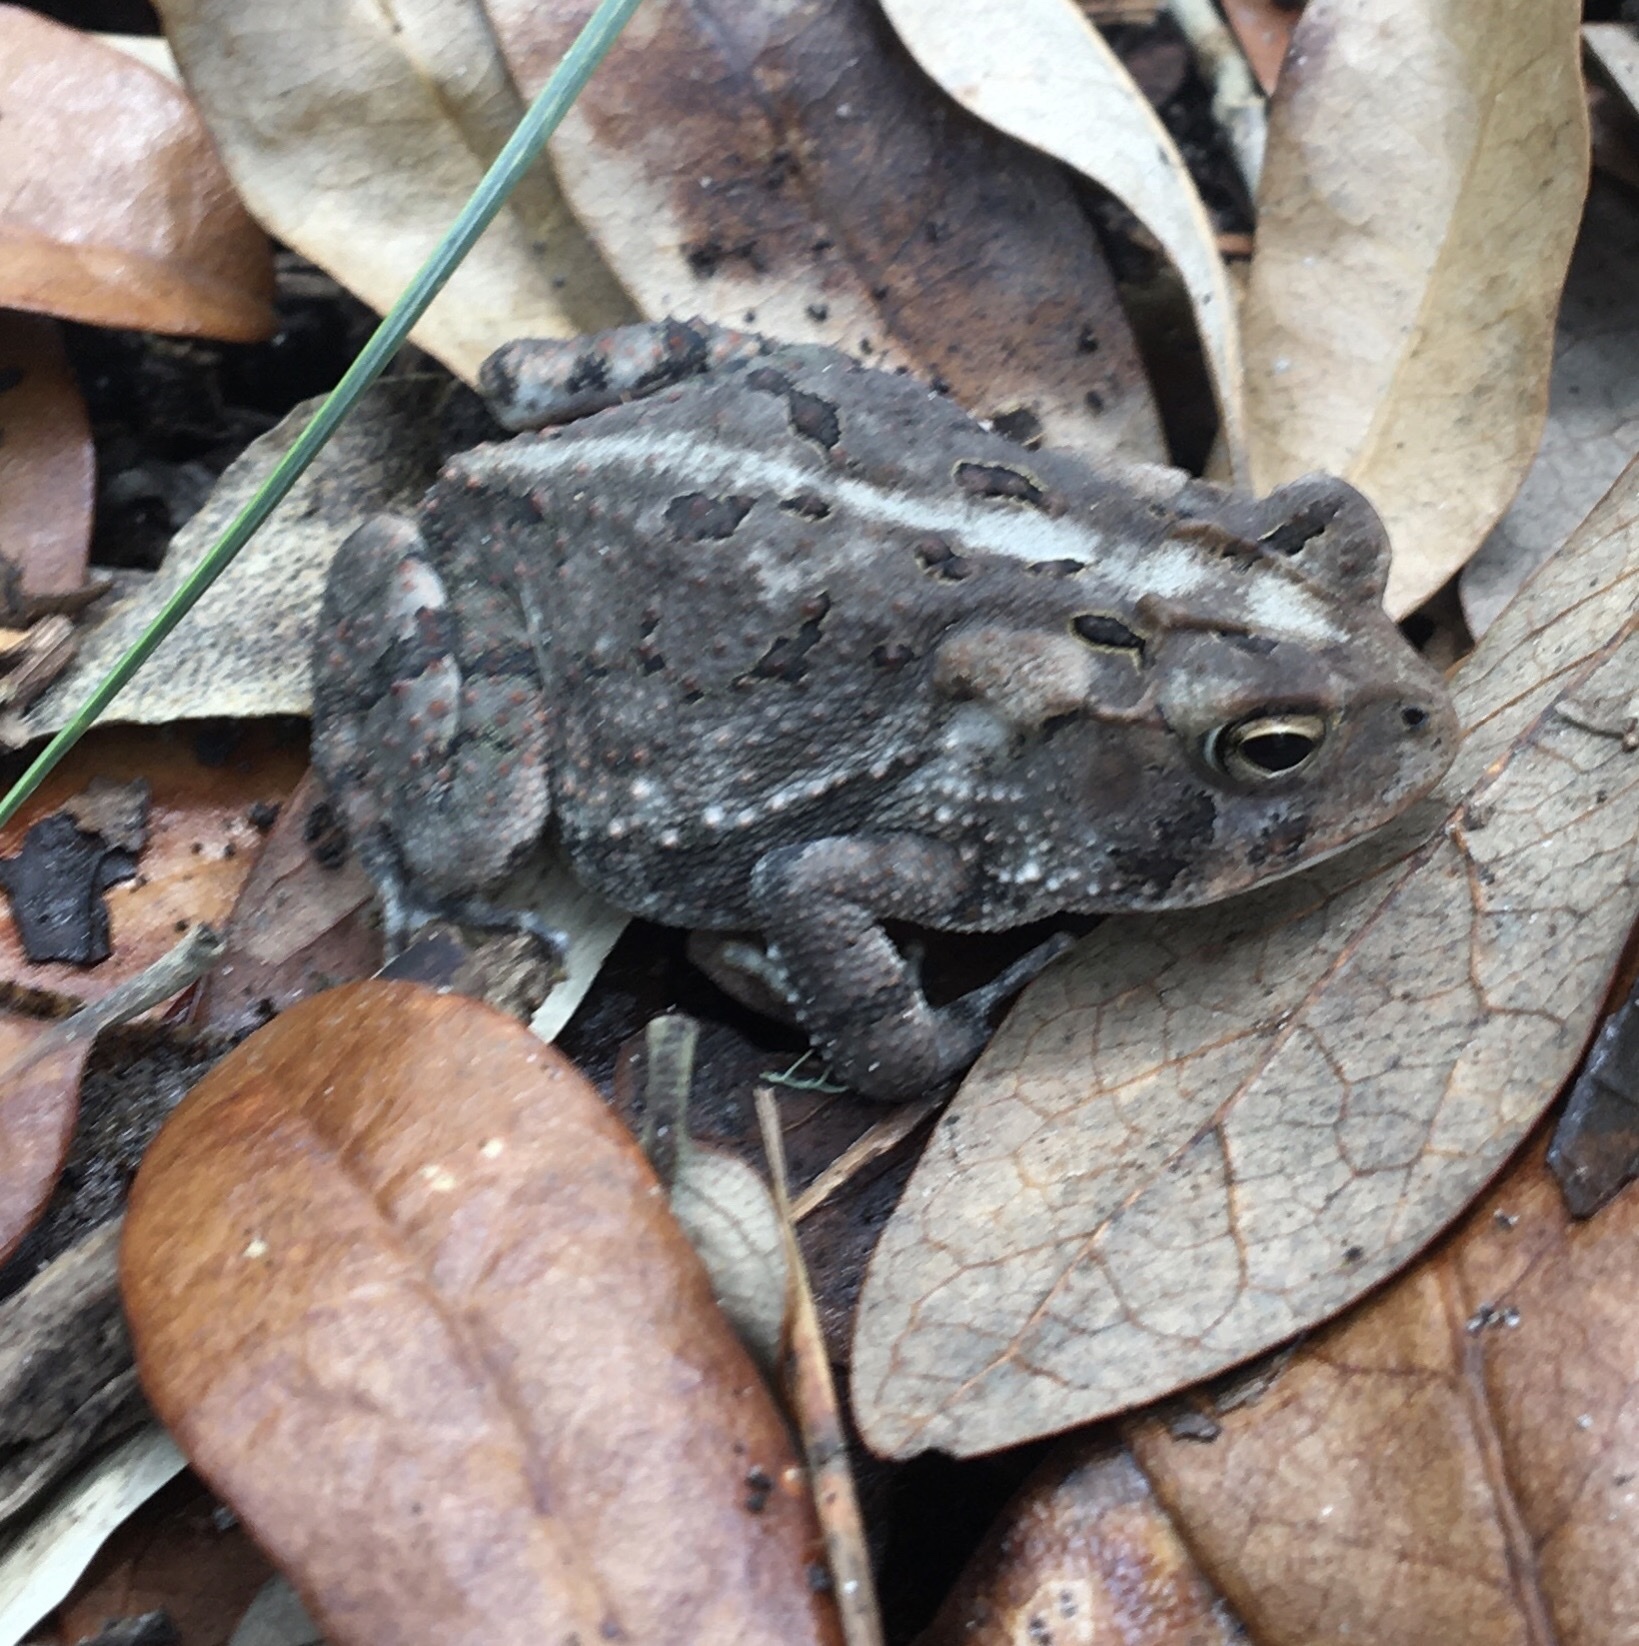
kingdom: Animalia
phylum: Chordata
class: Amphibia
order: Anura
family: Bufonidae
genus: Anaxyrus
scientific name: Anaxyrus terrestris
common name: Southern toad
